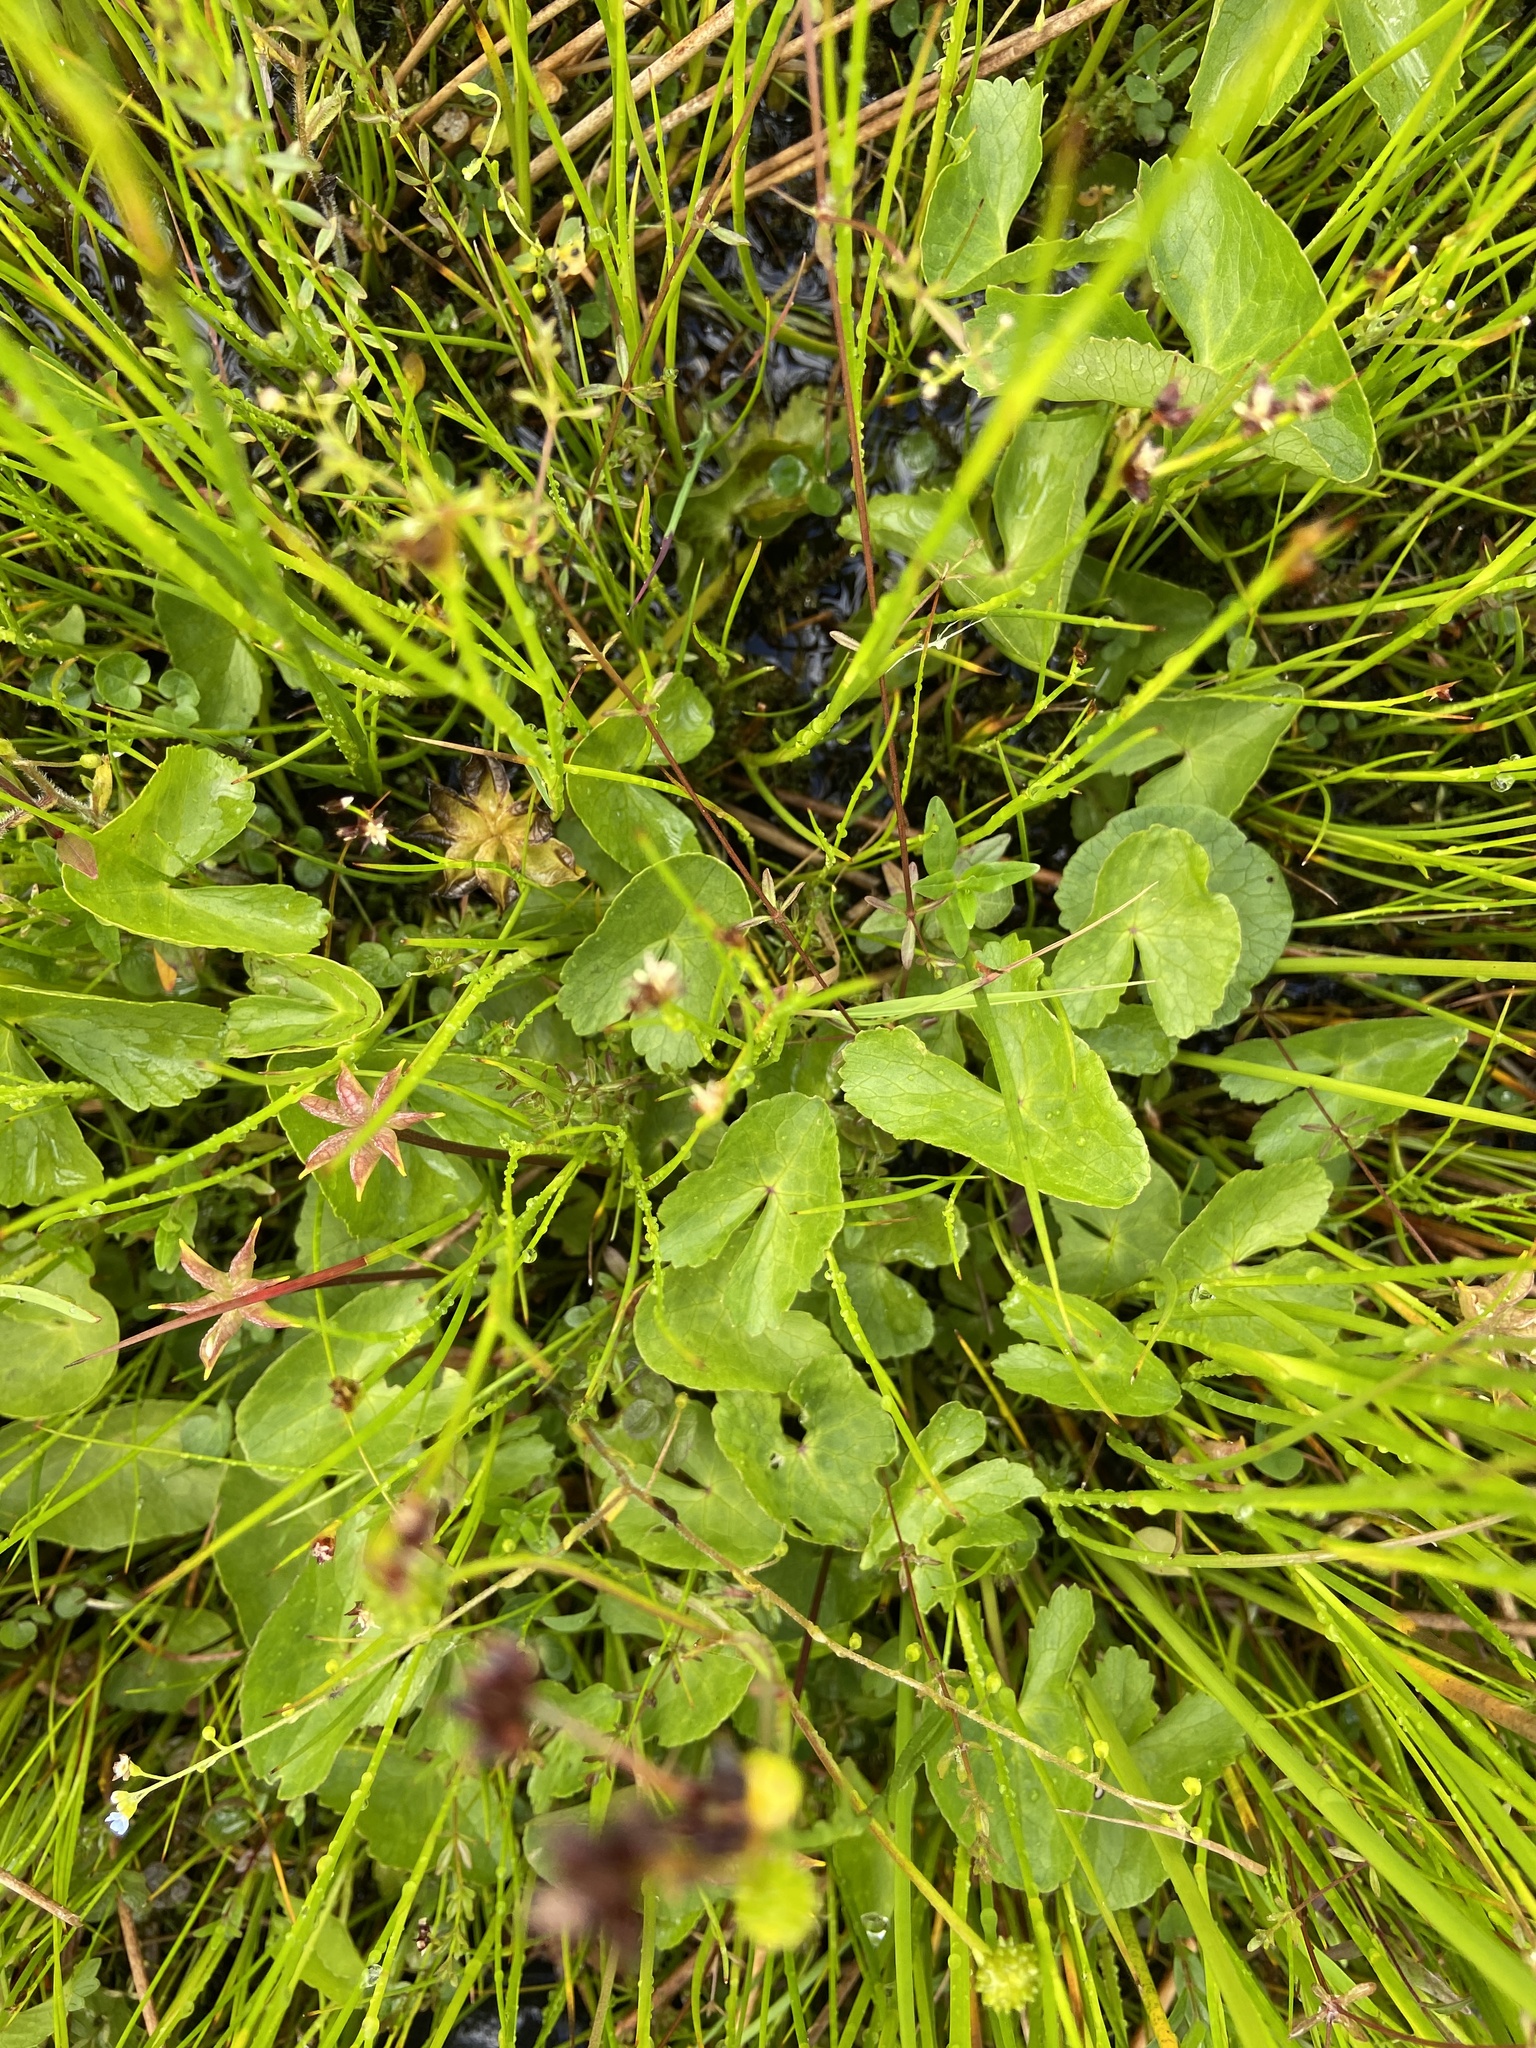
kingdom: Plantae
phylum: Tracheophyta
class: Magnoliopsida
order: Ranunculales
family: Ranunculaceae
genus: Caltha
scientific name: Caltha palustris
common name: Marsh marigold
